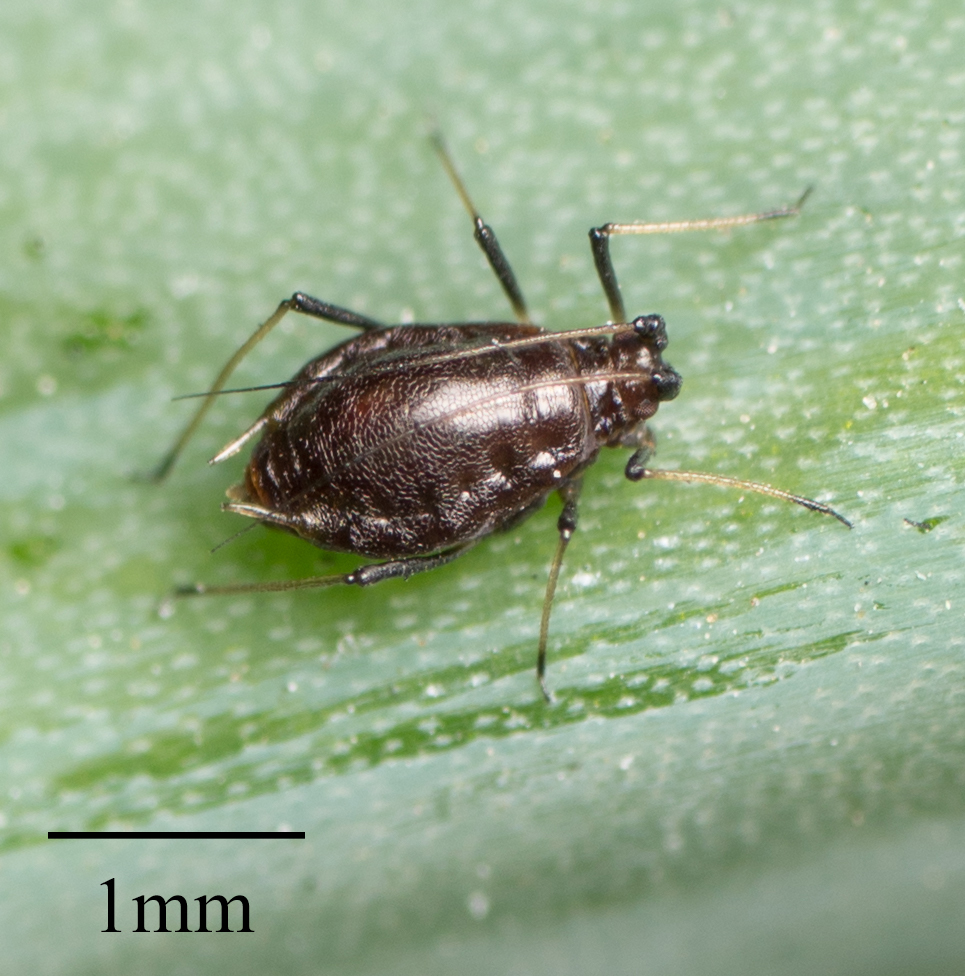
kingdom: Animalia
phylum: Arthropoda
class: Insecta
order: Hemiptera
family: Aphididae
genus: Neotoxoptera
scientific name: Neotoxoptera formosana
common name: Onion aphid
